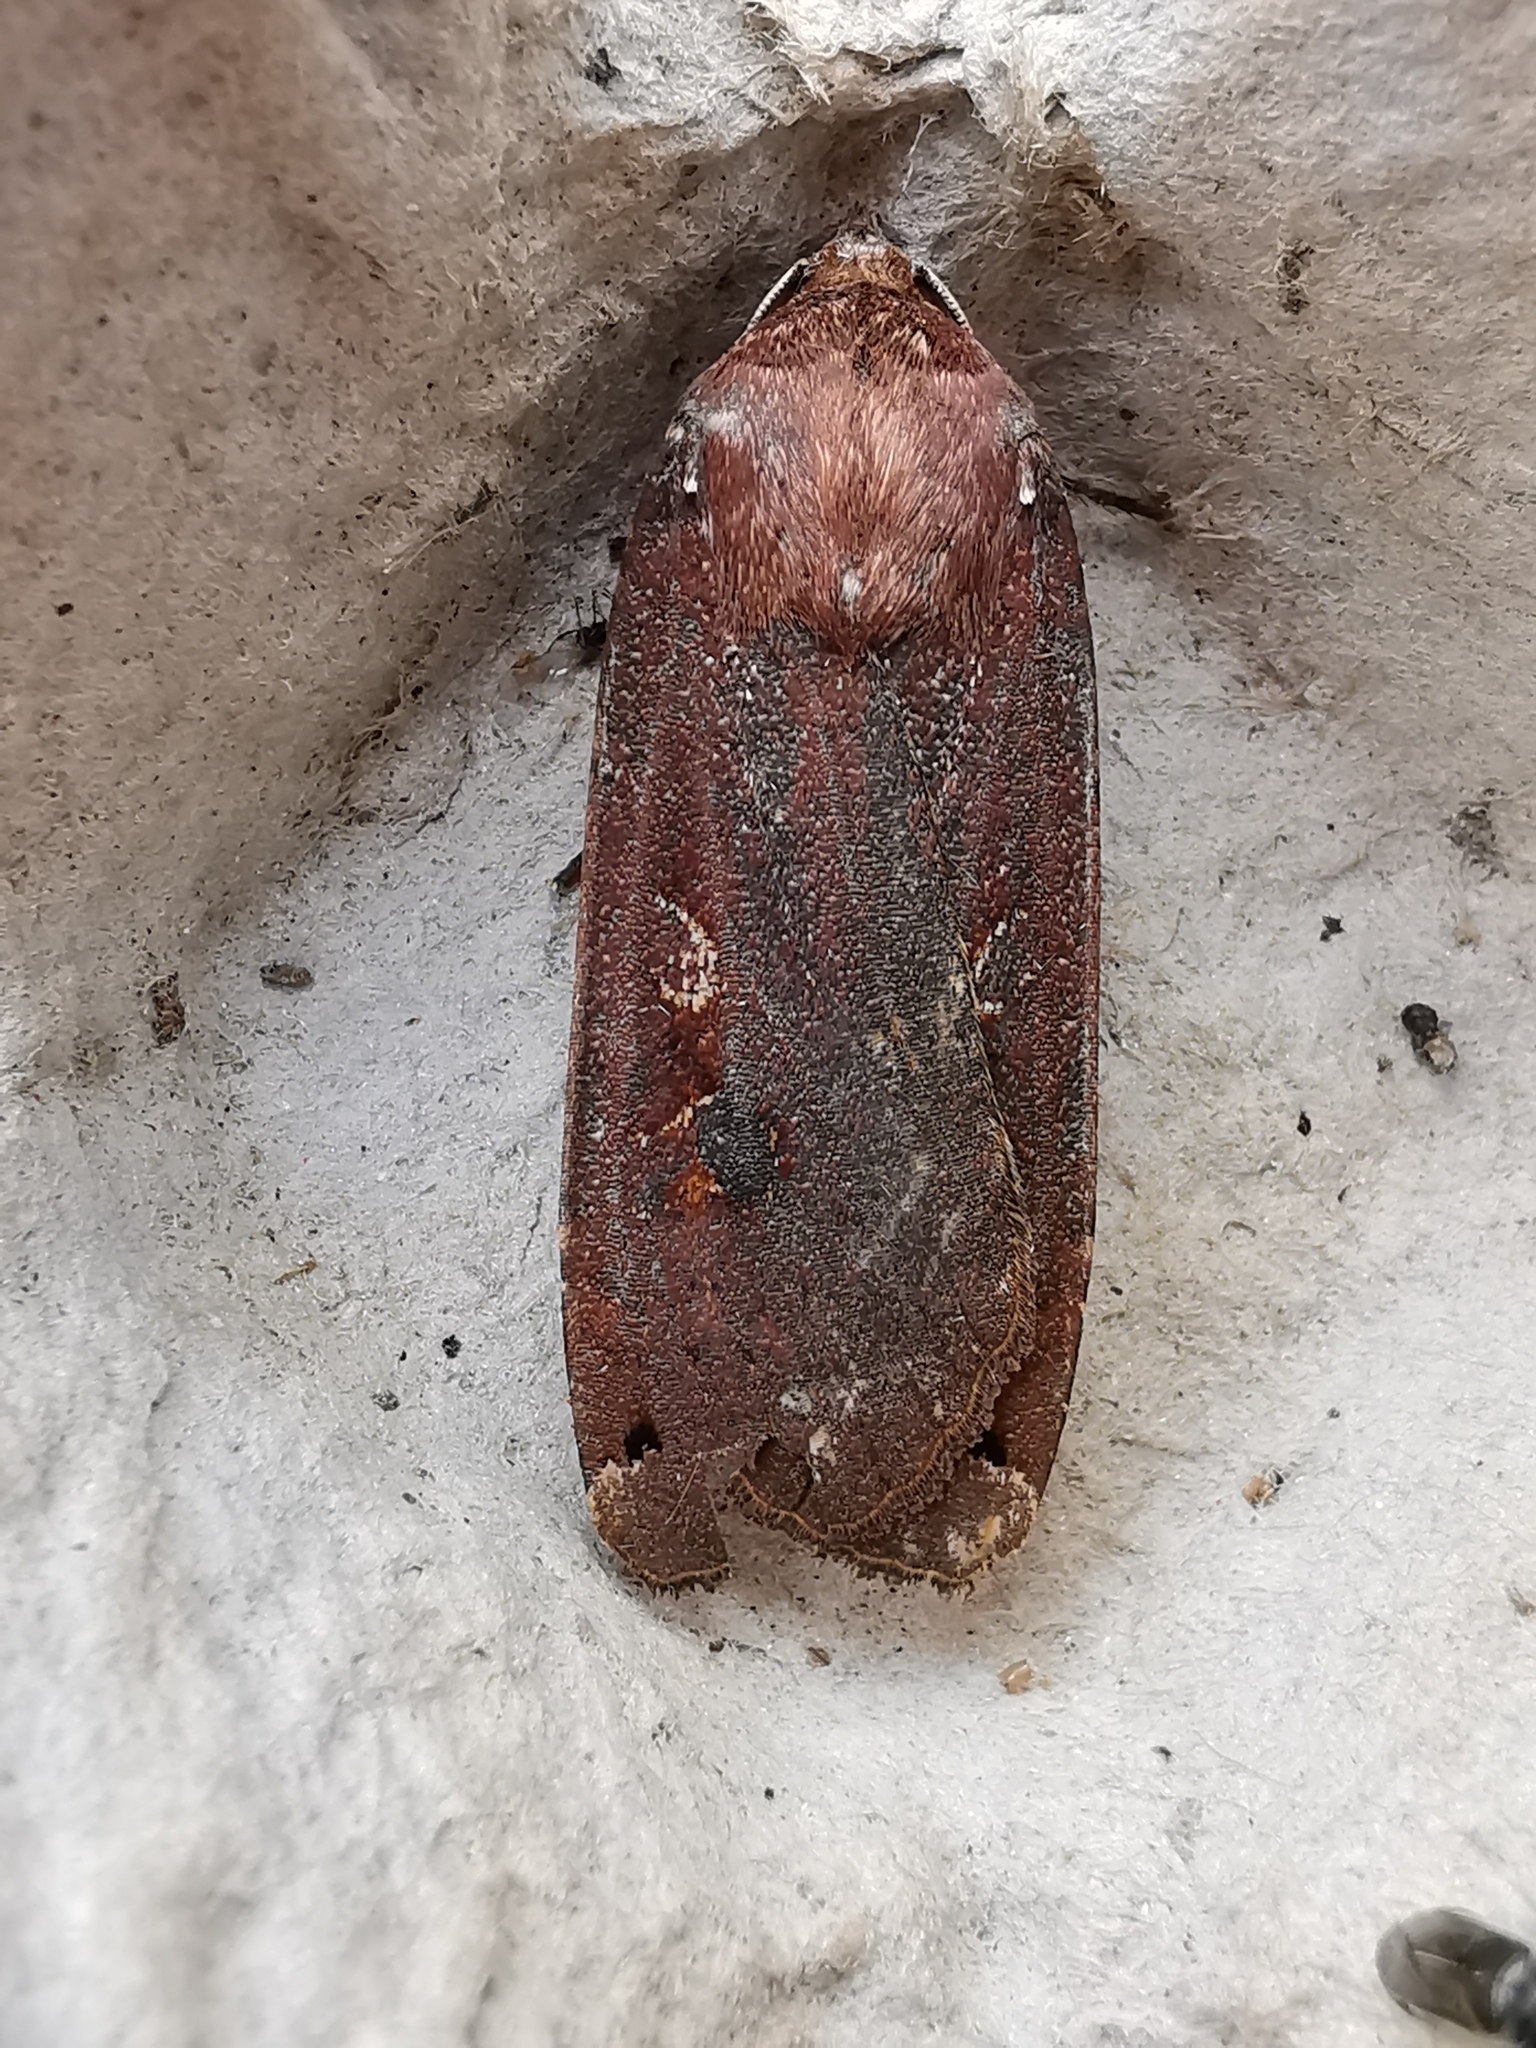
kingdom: Animalia
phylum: Arthropoda
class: Insecta
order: Lepidoptera
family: Noctuidae
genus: Noctua
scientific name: Noctua pronuba
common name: Large yellow underwing
